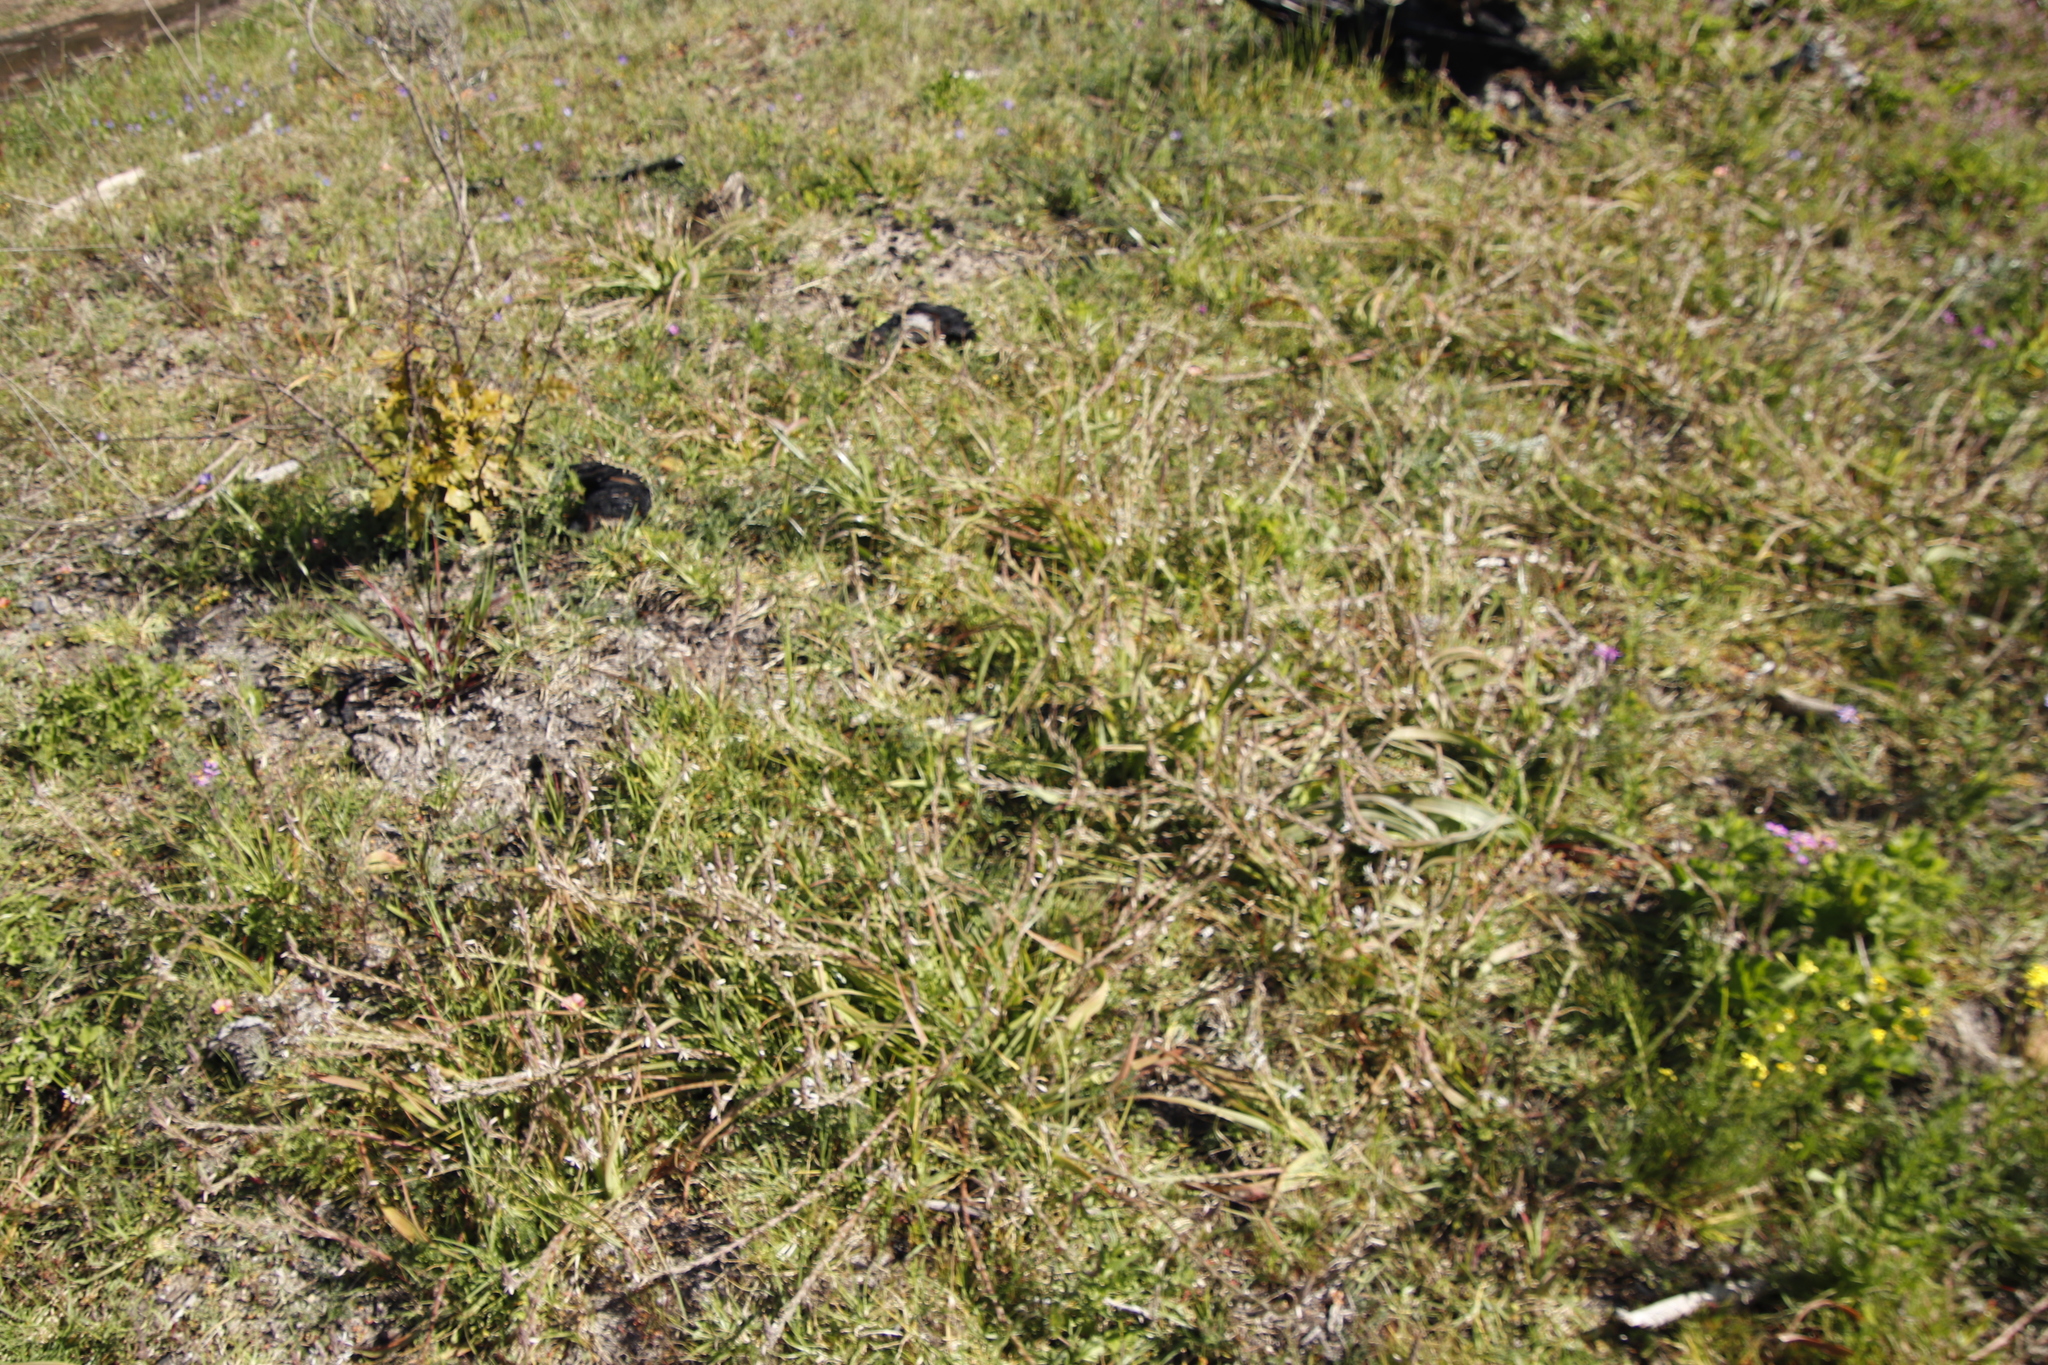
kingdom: Plantae
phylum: Tracheophyta
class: Liliopsida
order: Asparagales
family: Asphodelaceae
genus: Trachyandra
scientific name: Trachyandra ciliata
